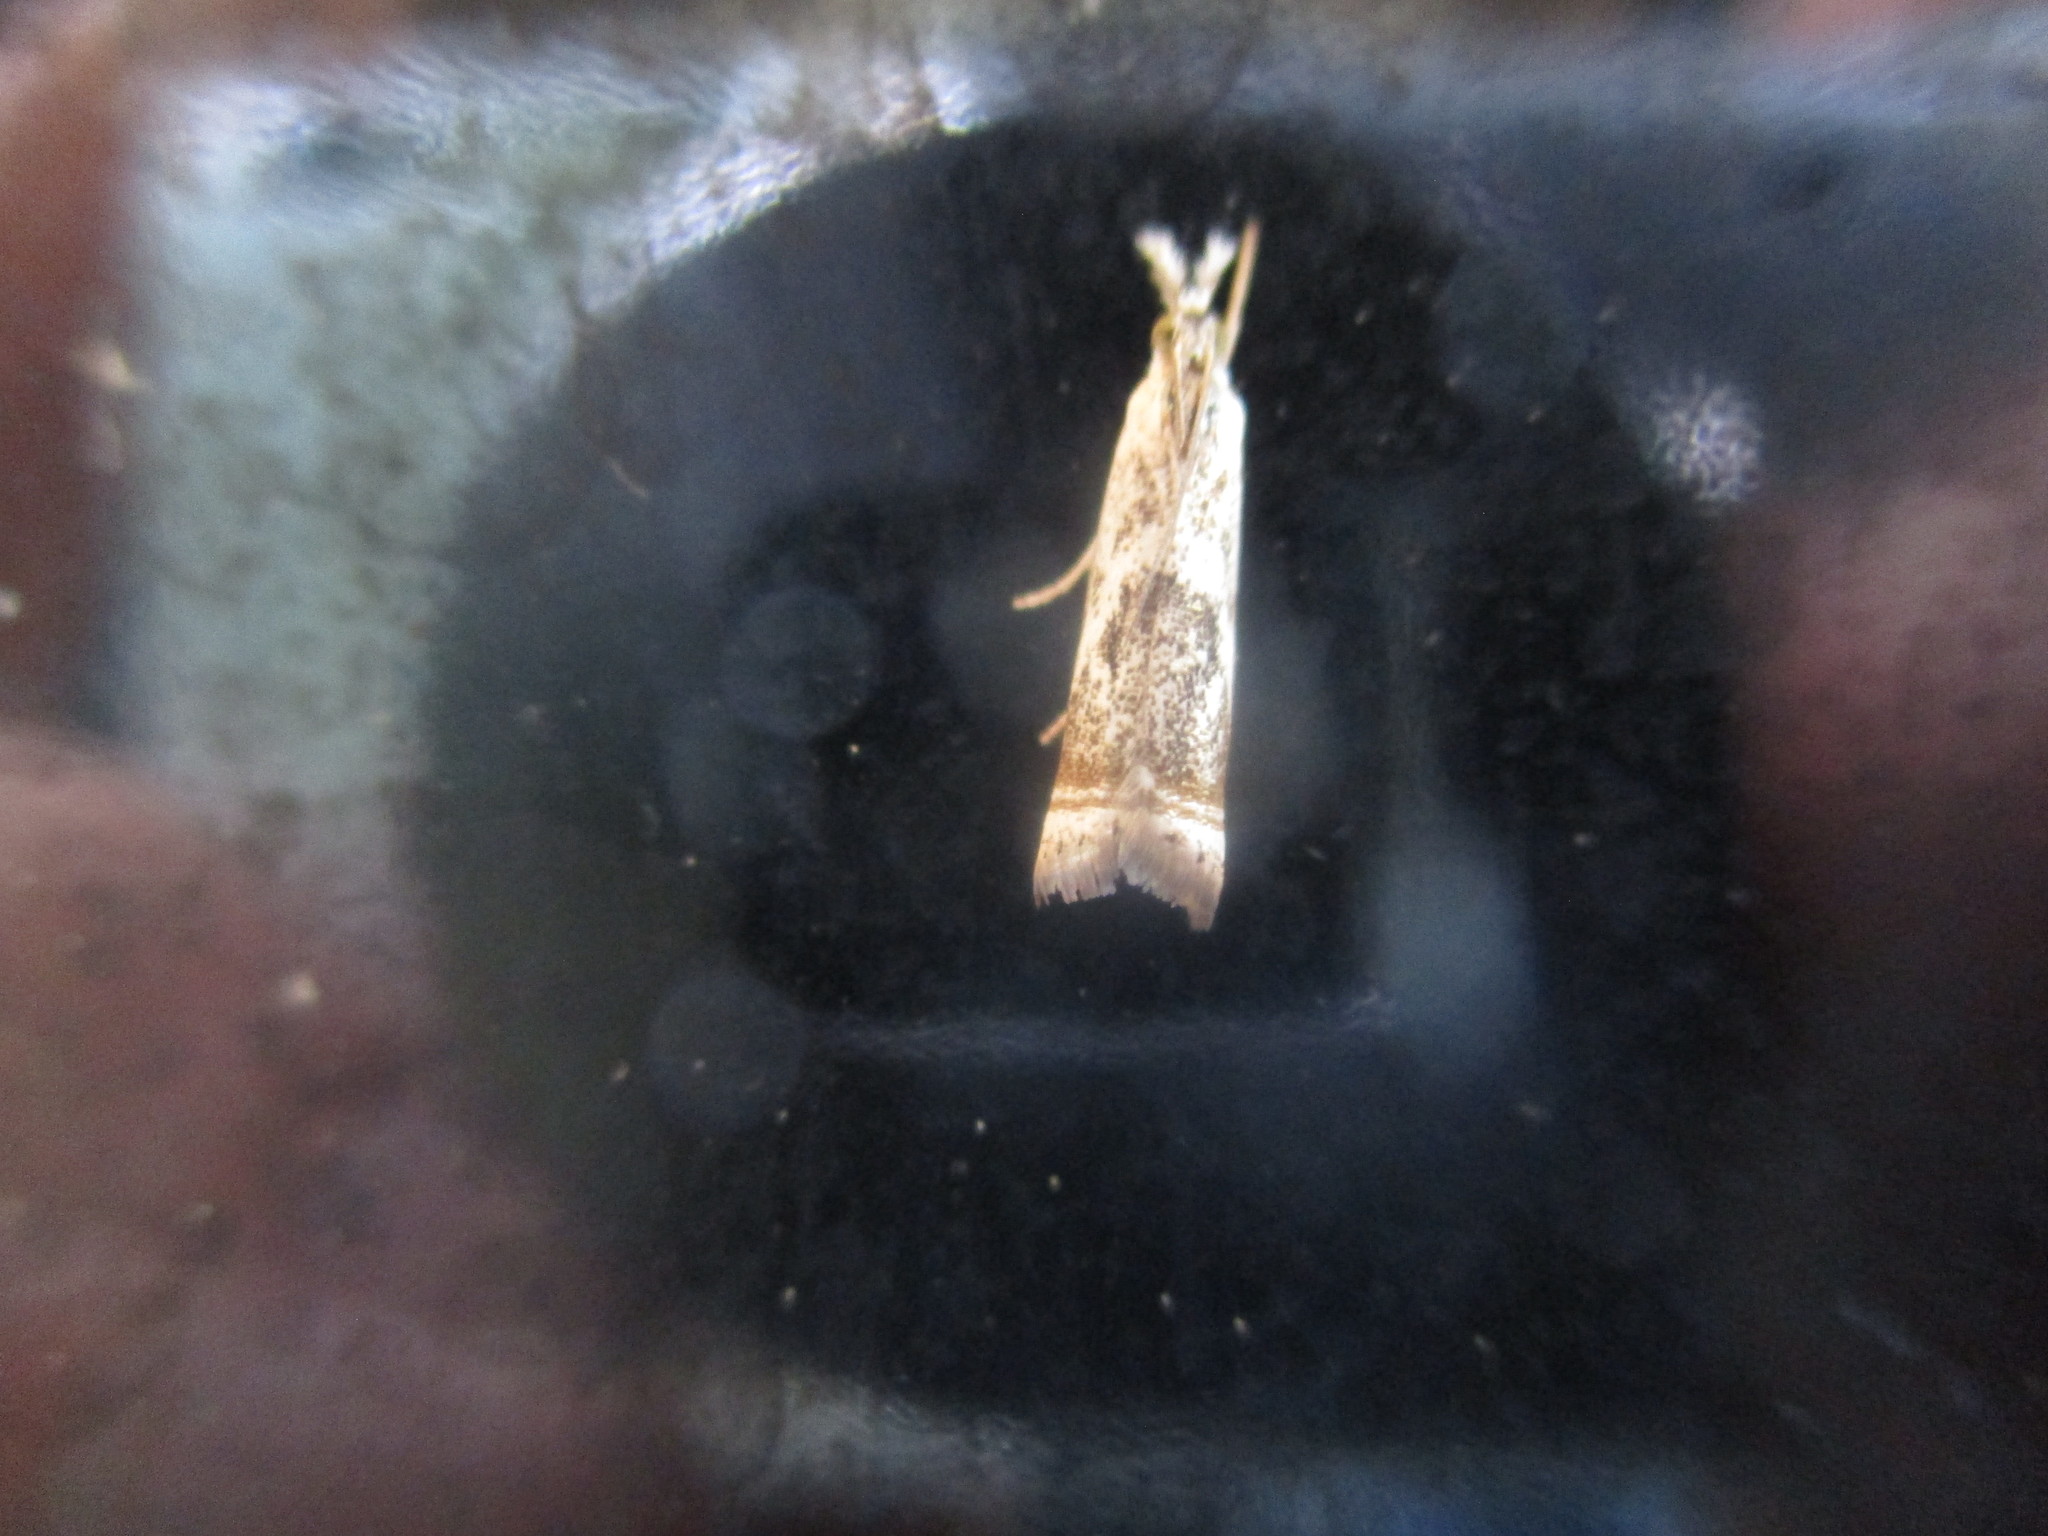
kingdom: Animalia
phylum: Arthropoda
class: Insecta
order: Lepidoptera
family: Crambidae
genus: Microcrambus
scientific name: Microcrambus elegans
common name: Elegant grass-veneer
